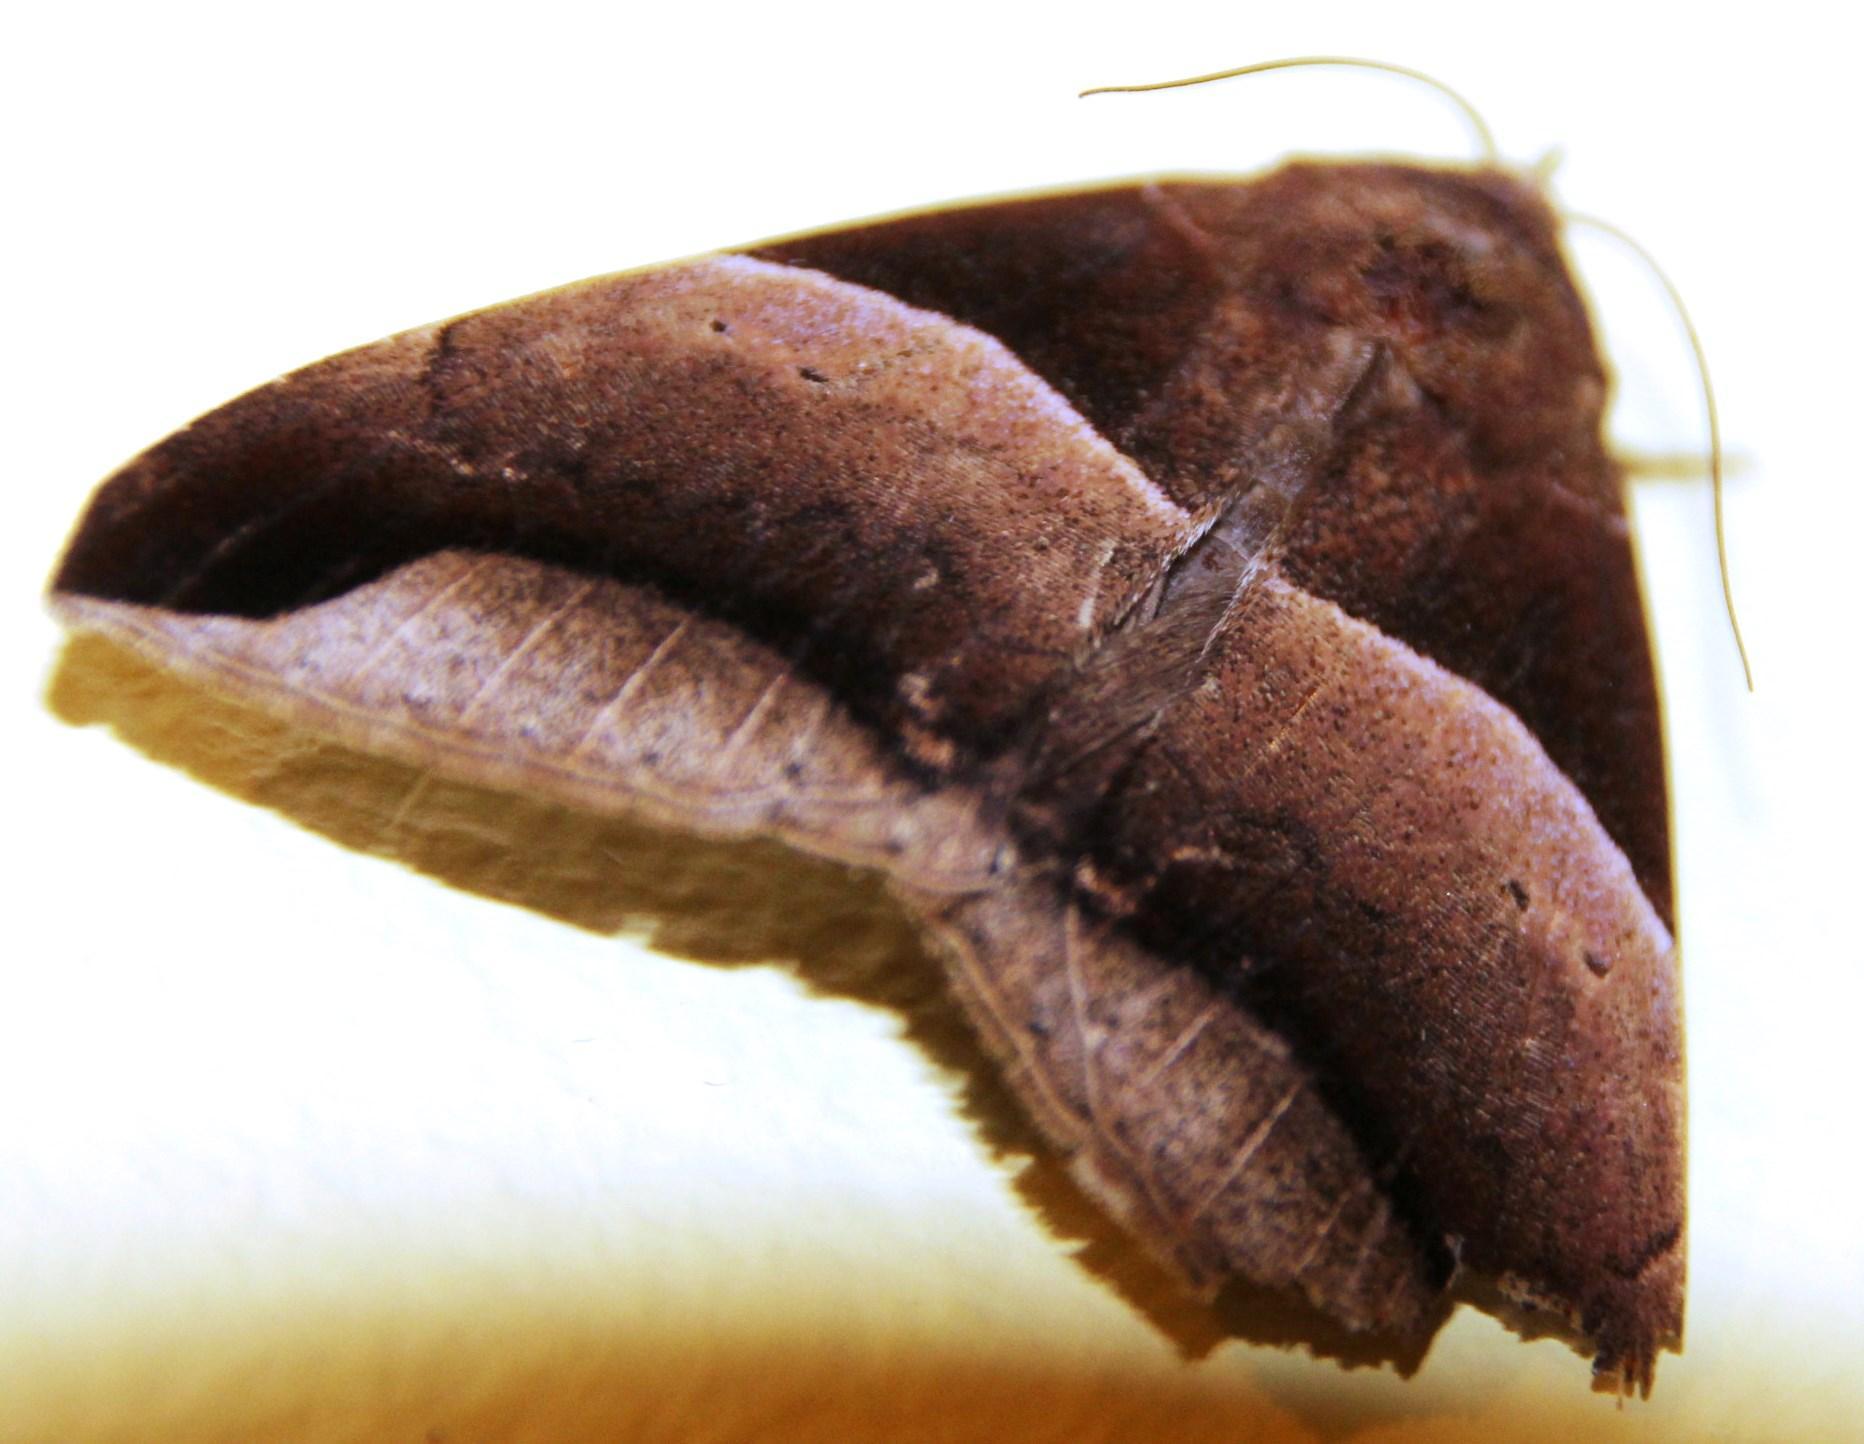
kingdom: Animalia
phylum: Arthropoda
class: Insecta
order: Lepidoptera
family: Erebidae
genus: Achaea
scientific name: Achaea echo
